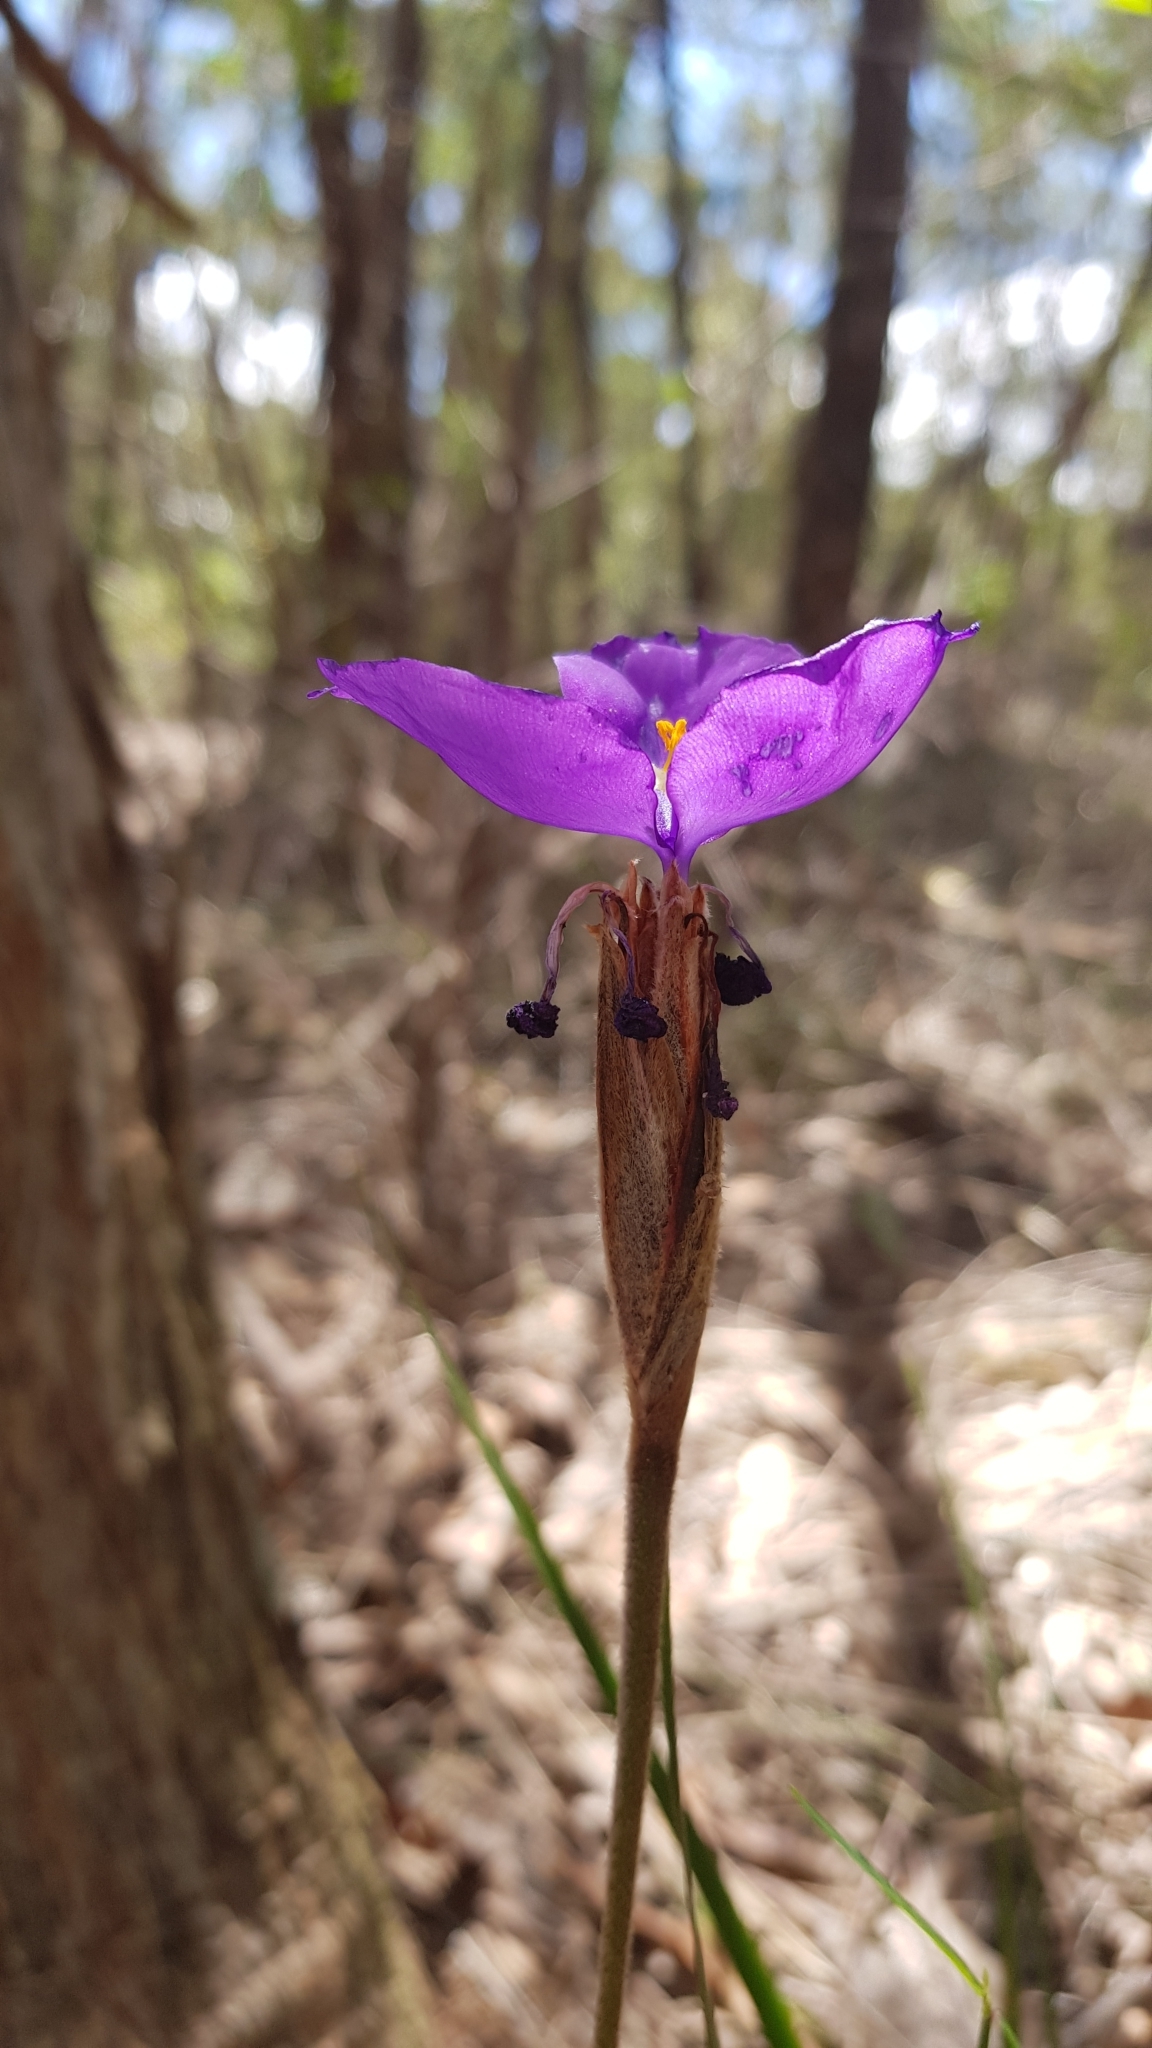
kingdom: Plantae
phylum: Tracheophyta
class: Liliopsida
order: Asparagales
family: Iridaceae
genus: Patersonia
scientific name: Patersonia sericea
